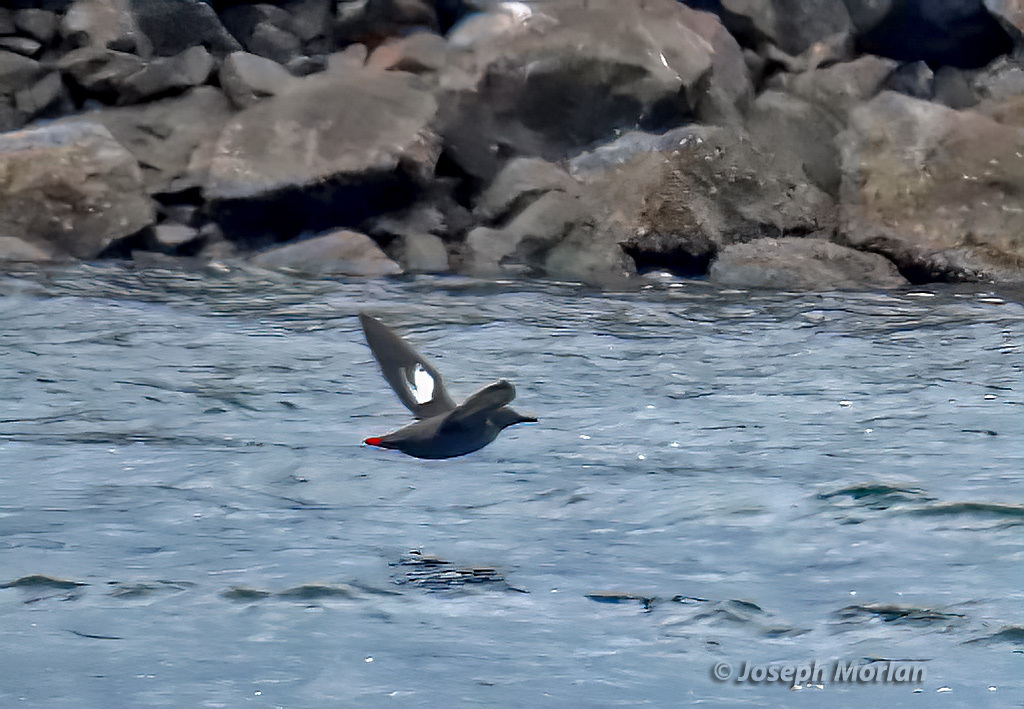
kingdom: Animalia
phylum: Chordata
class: Aves
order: Charadriiformes
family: Alcidae
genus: Cepphus
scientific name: Cepphus columba
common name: Pigeon guillemot
